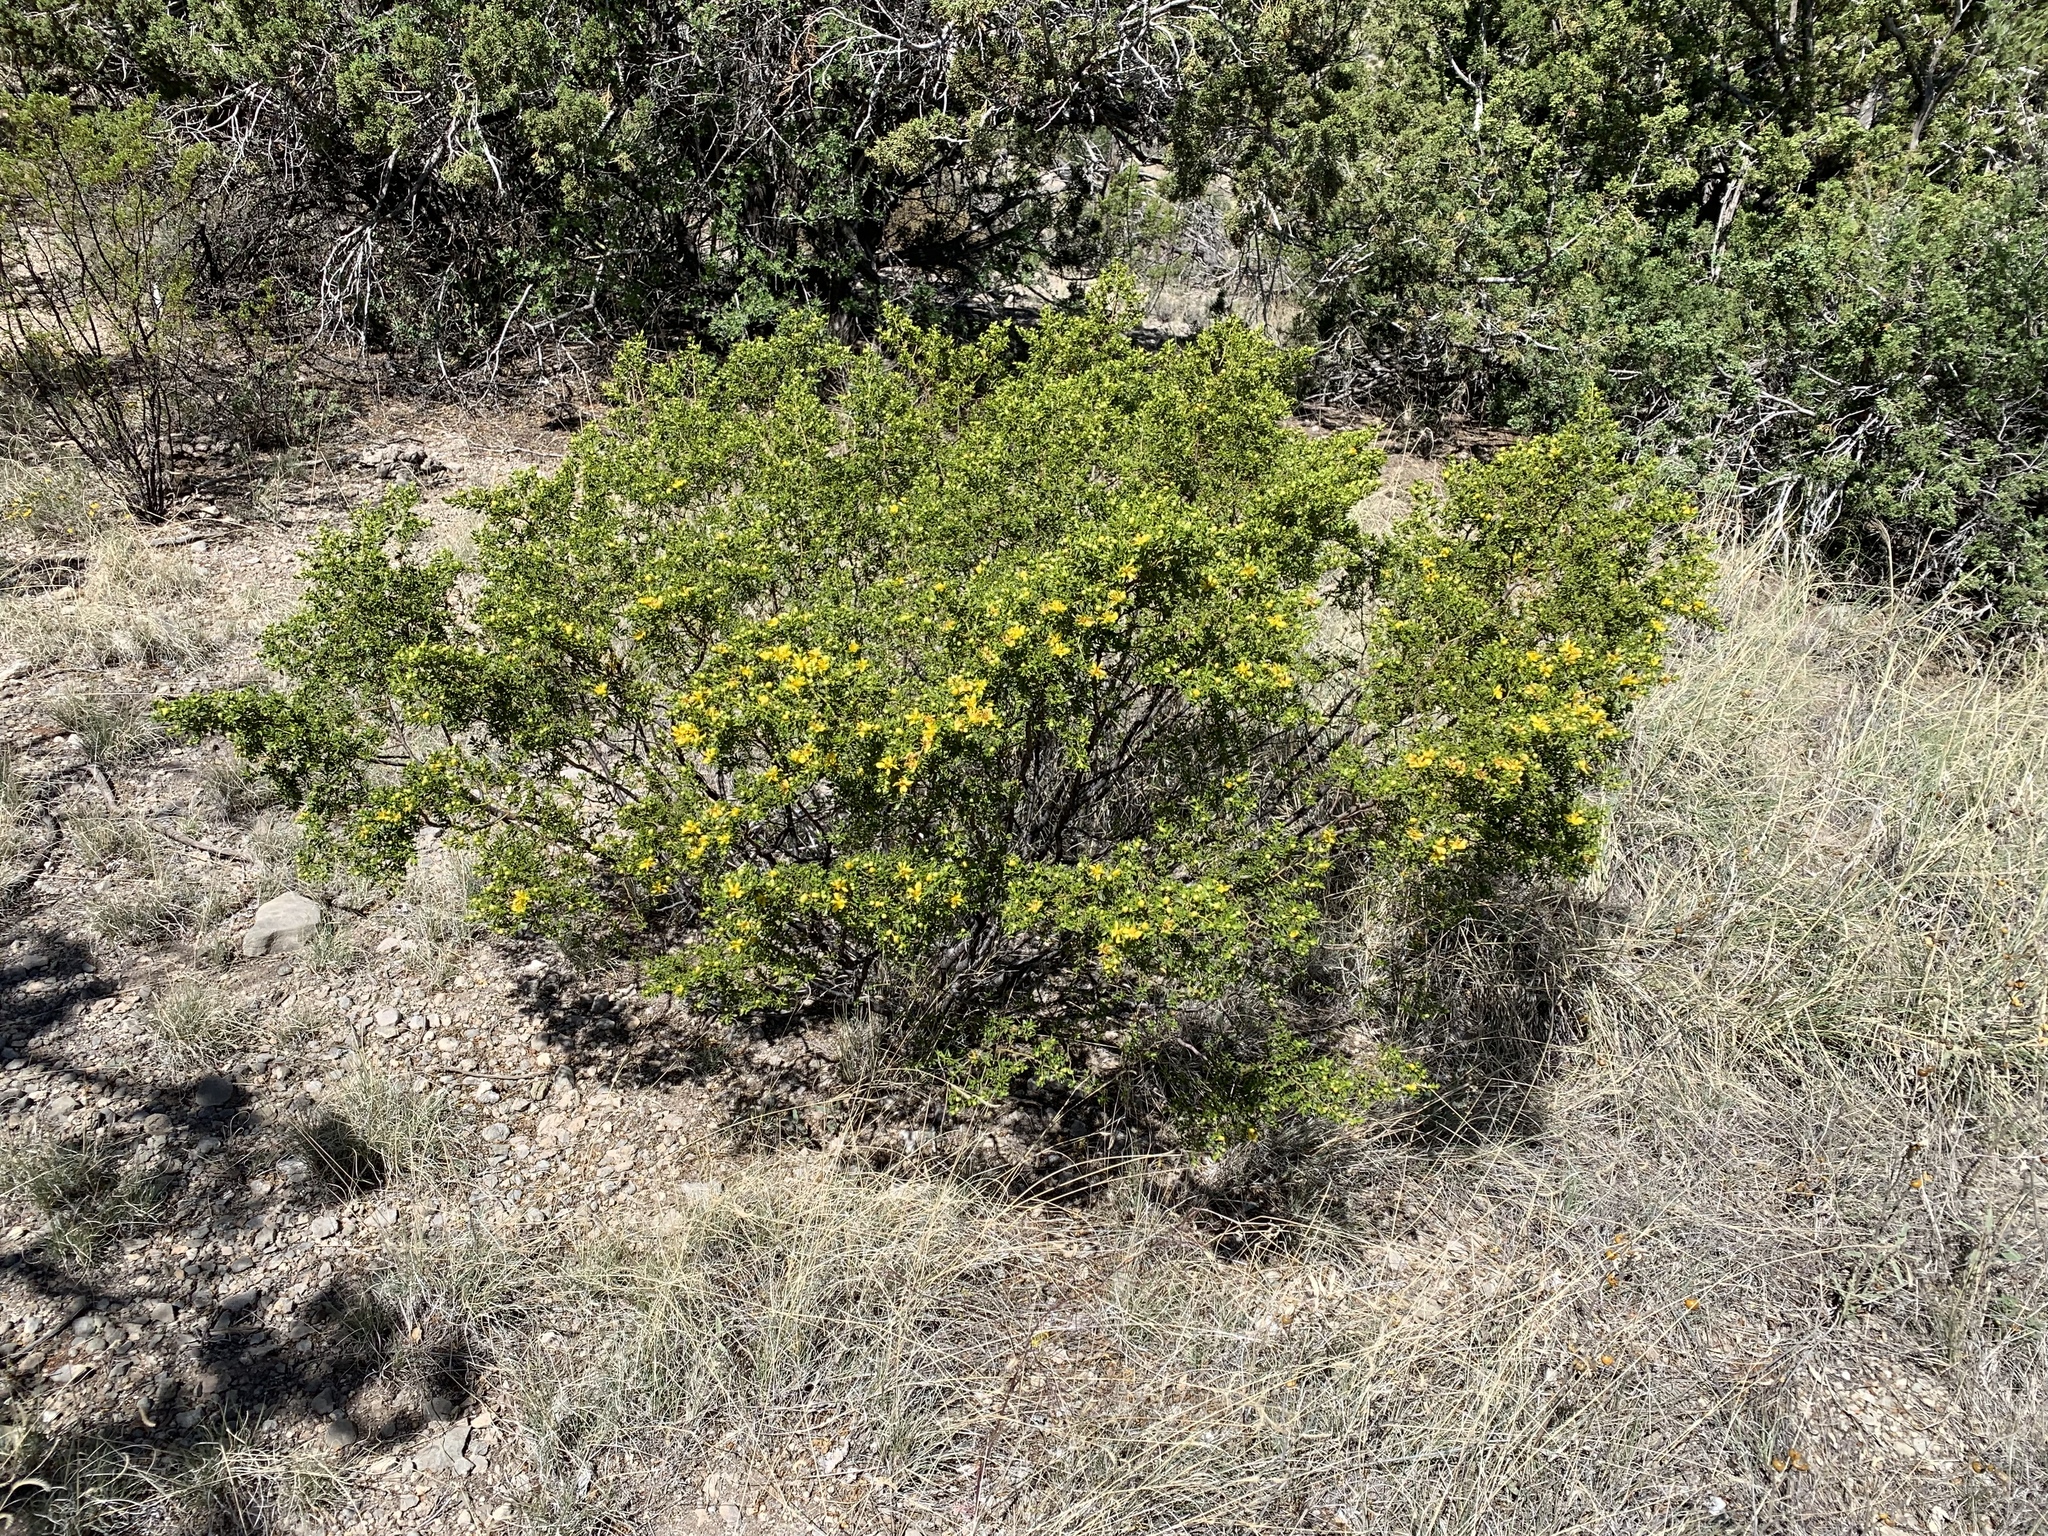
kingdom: Plantae
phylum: Tracheophyta
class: Magnoliopsida
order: Zygophyllales
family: Zygophyllaceae
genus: Larrea
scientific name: Larrea tridentata
